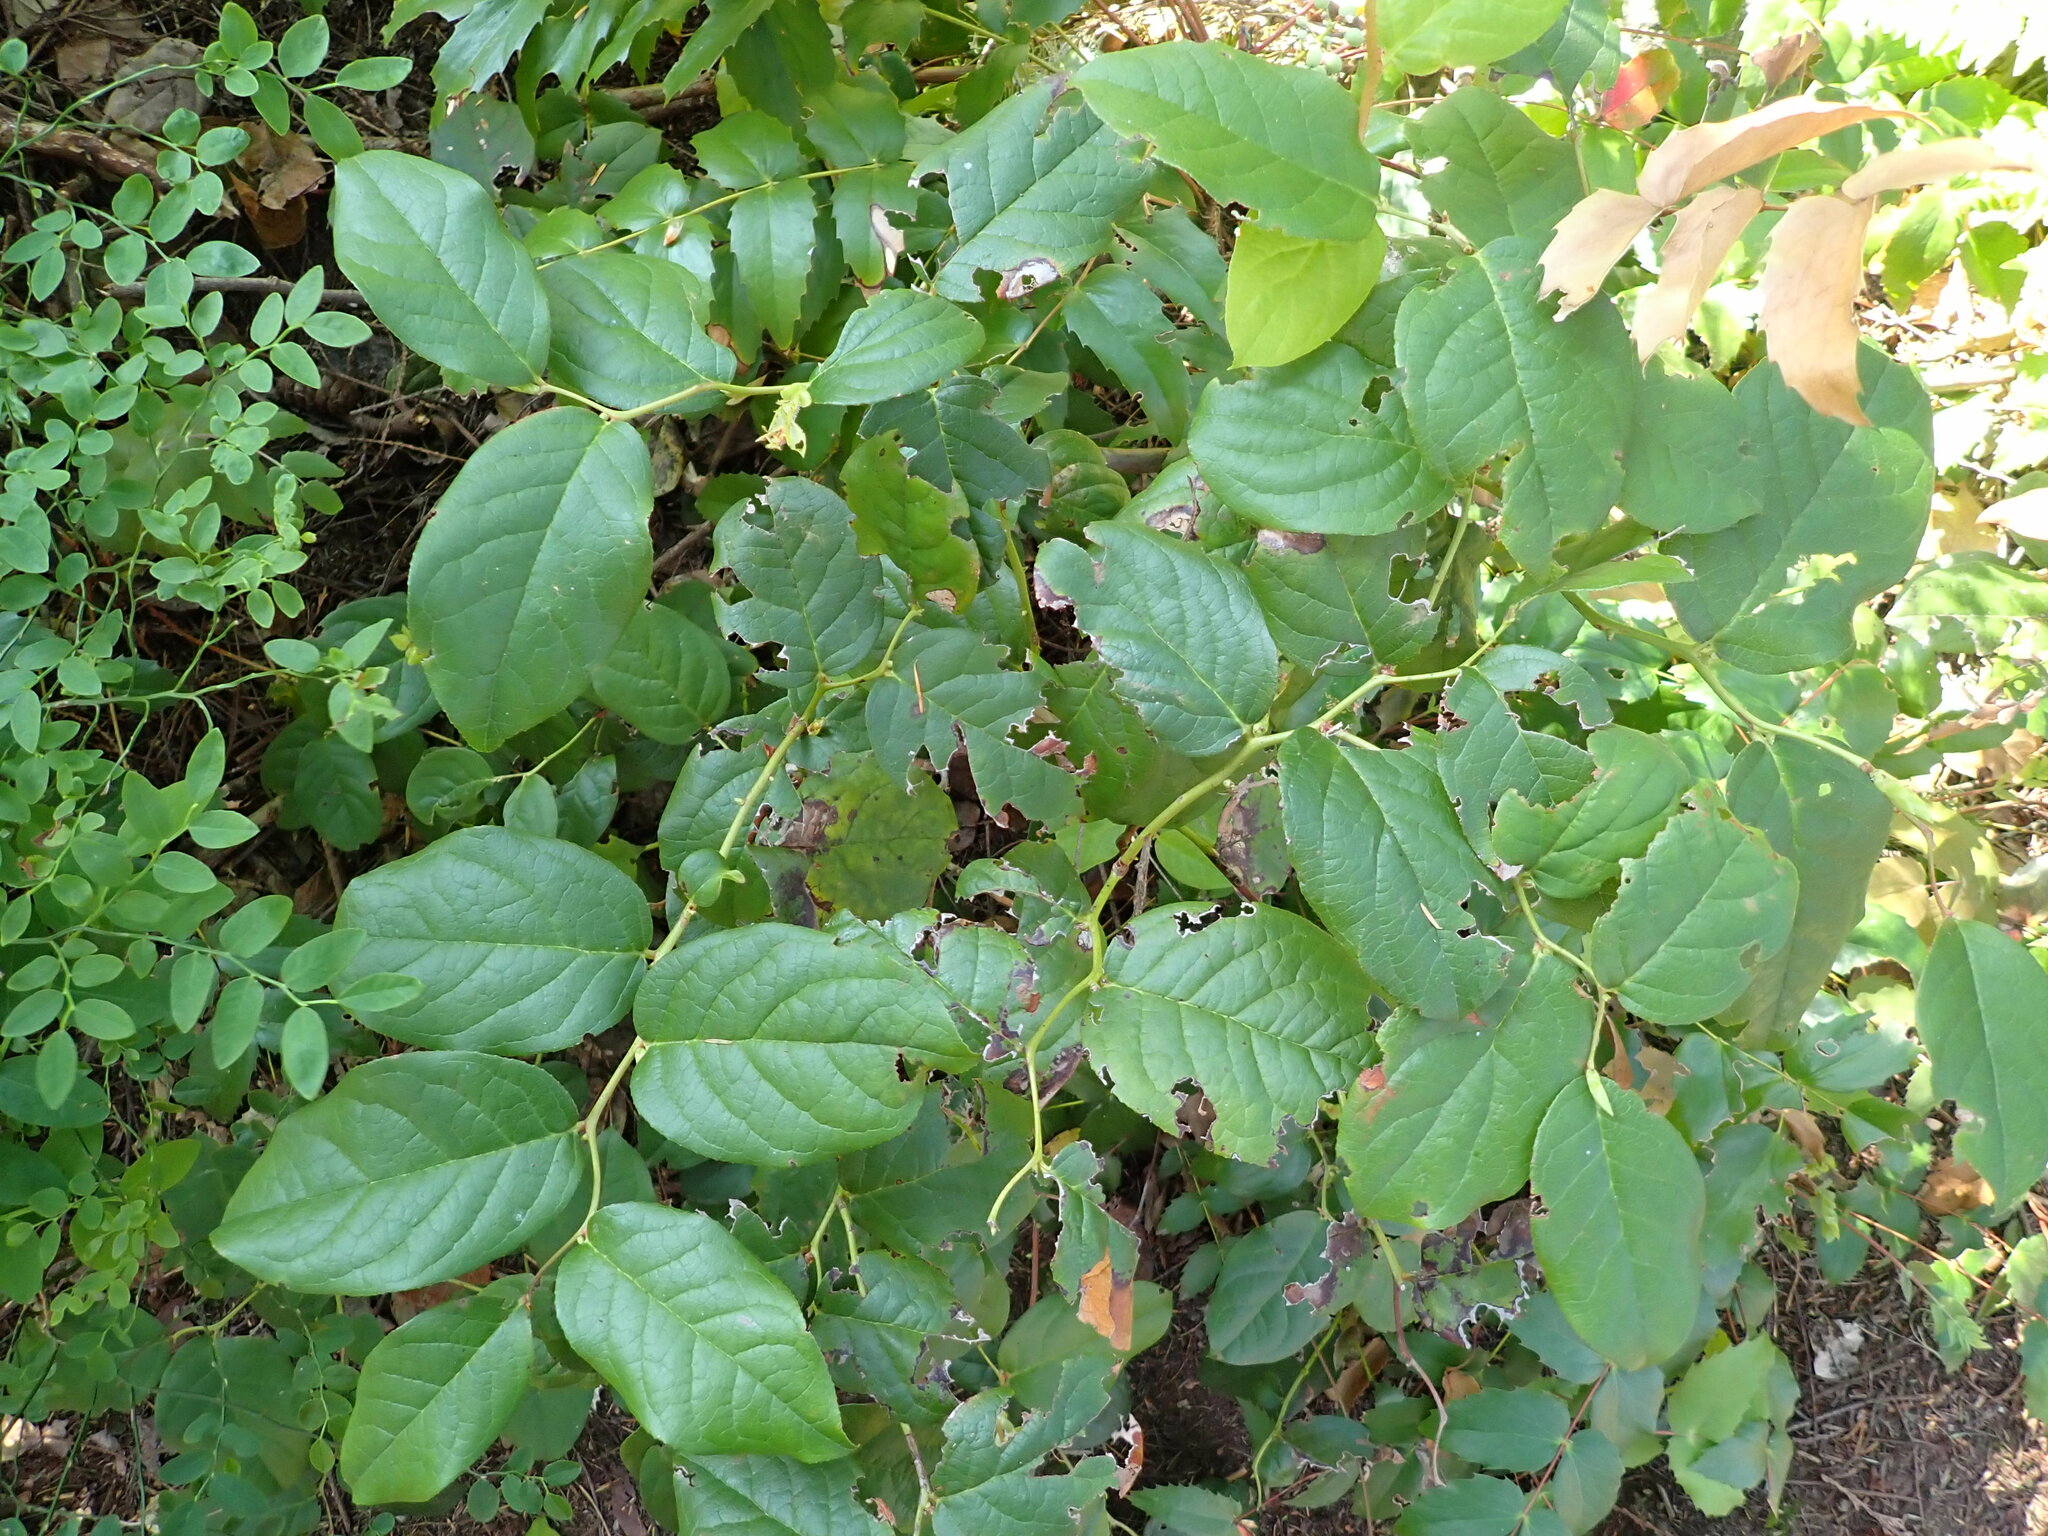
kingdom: Plantae
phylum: Tracheophyta
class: Magnoliopsida
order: Ericales
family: Ericaceae
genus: Gaultheria
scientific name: Gaultheria shallon
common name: Shallon
